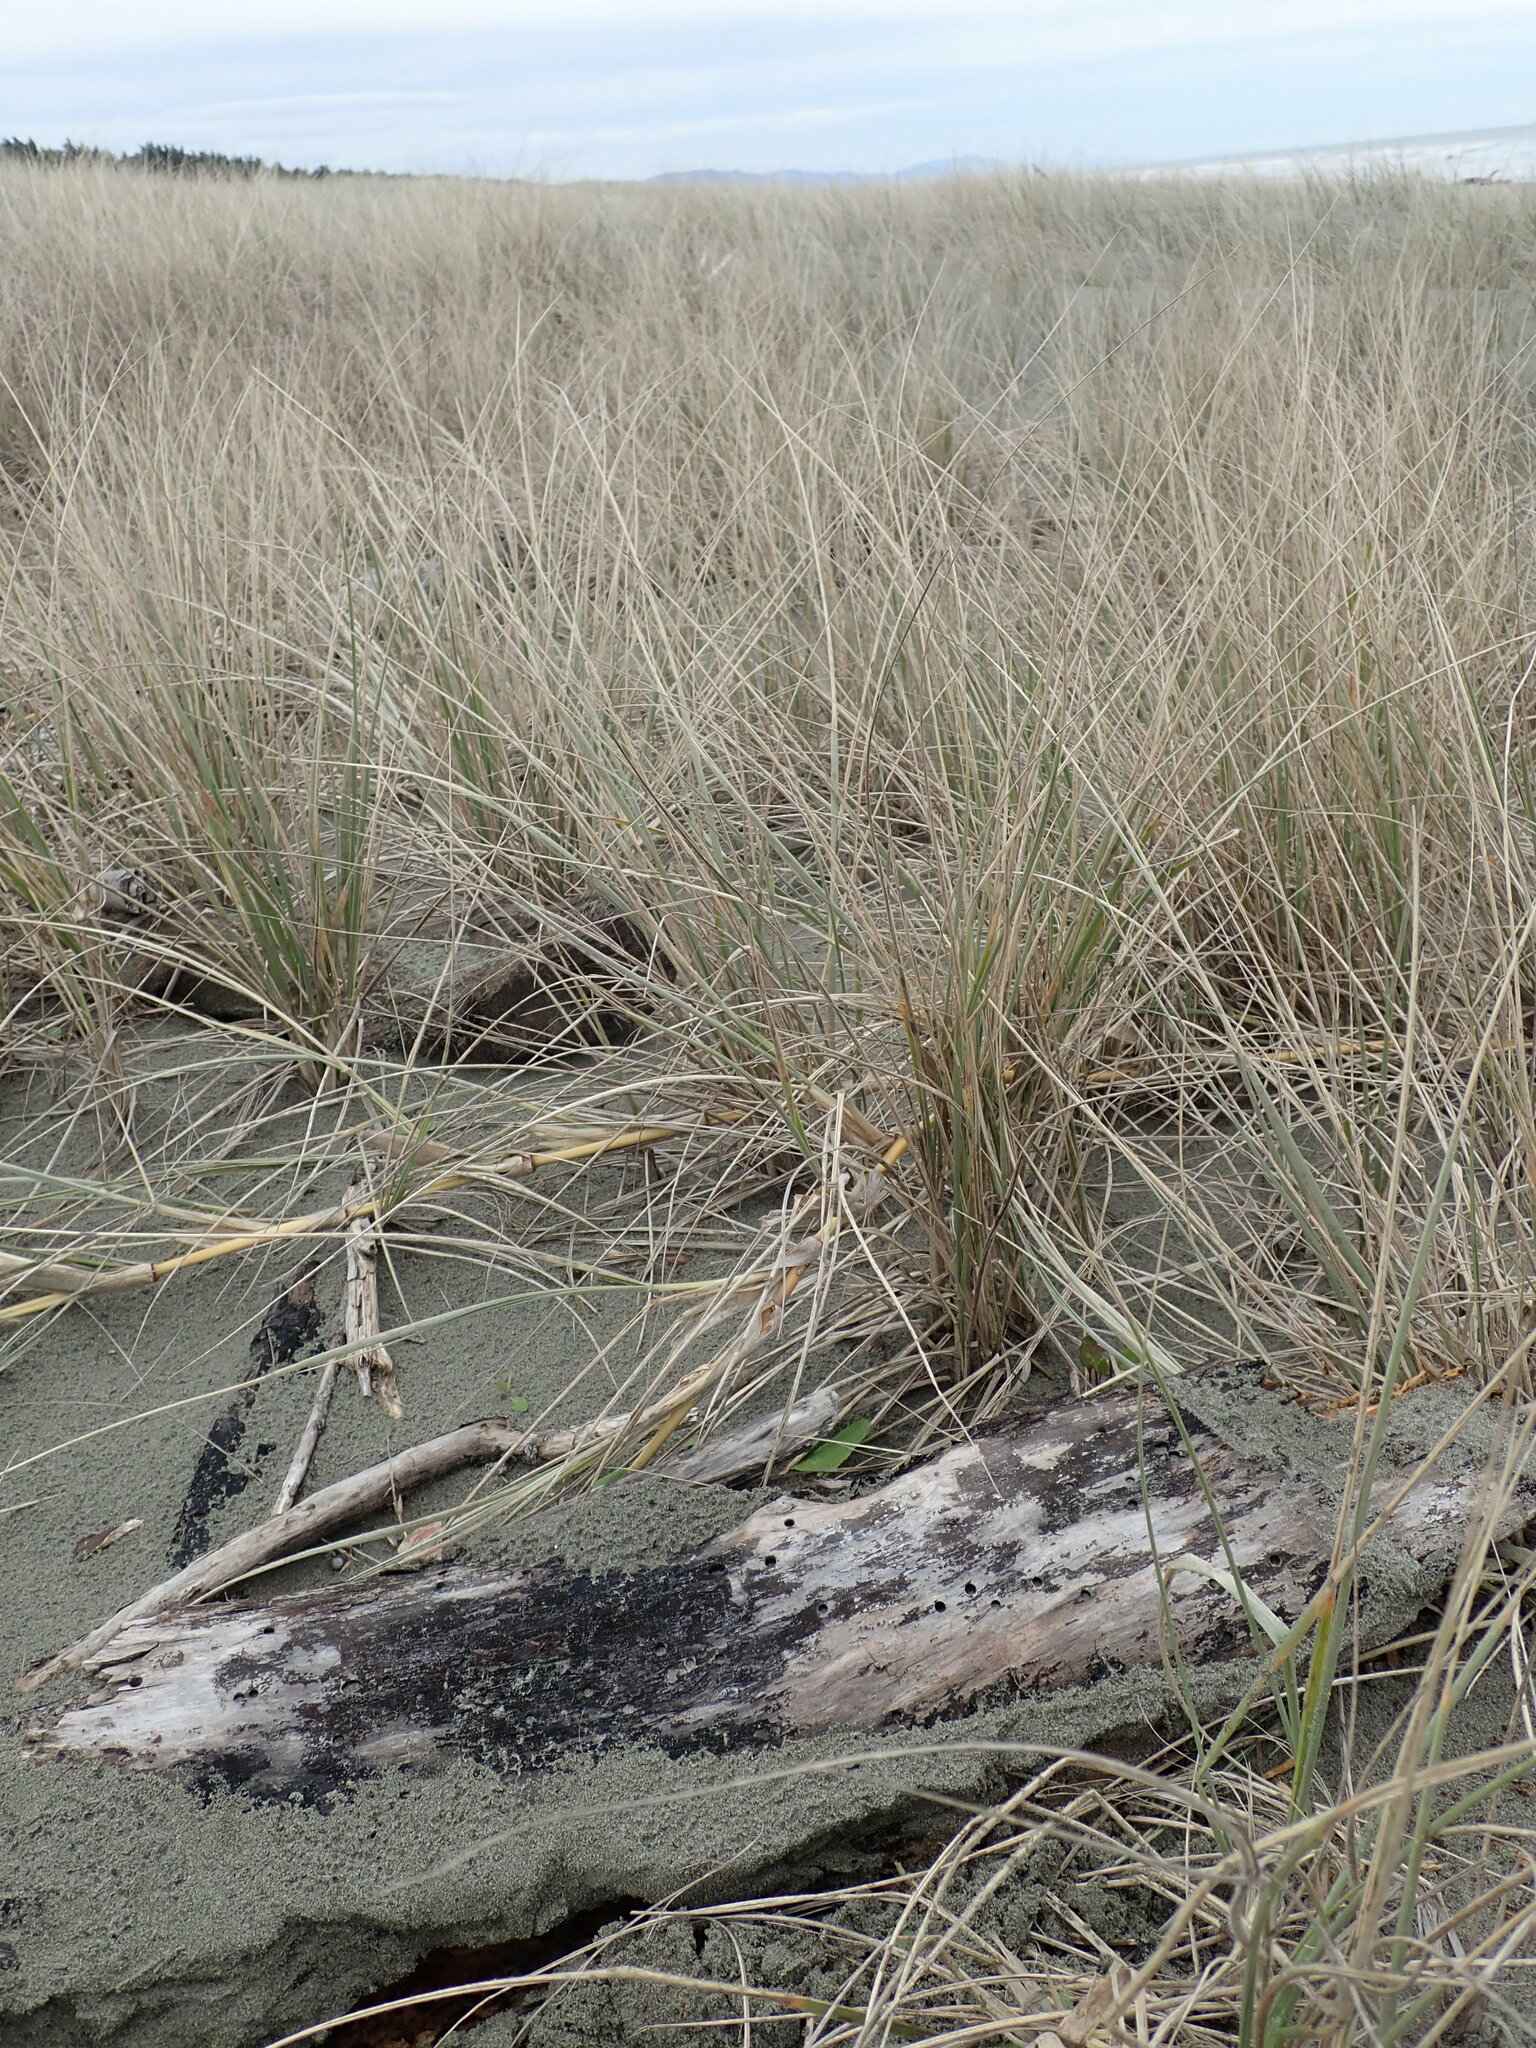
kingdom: Animalia
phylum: Arthropoda
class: Malacostraca
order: Isopoda
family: Porcellionidae
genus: Porcellio
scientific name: Porcellio scaber
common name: Common rough woodlouse
